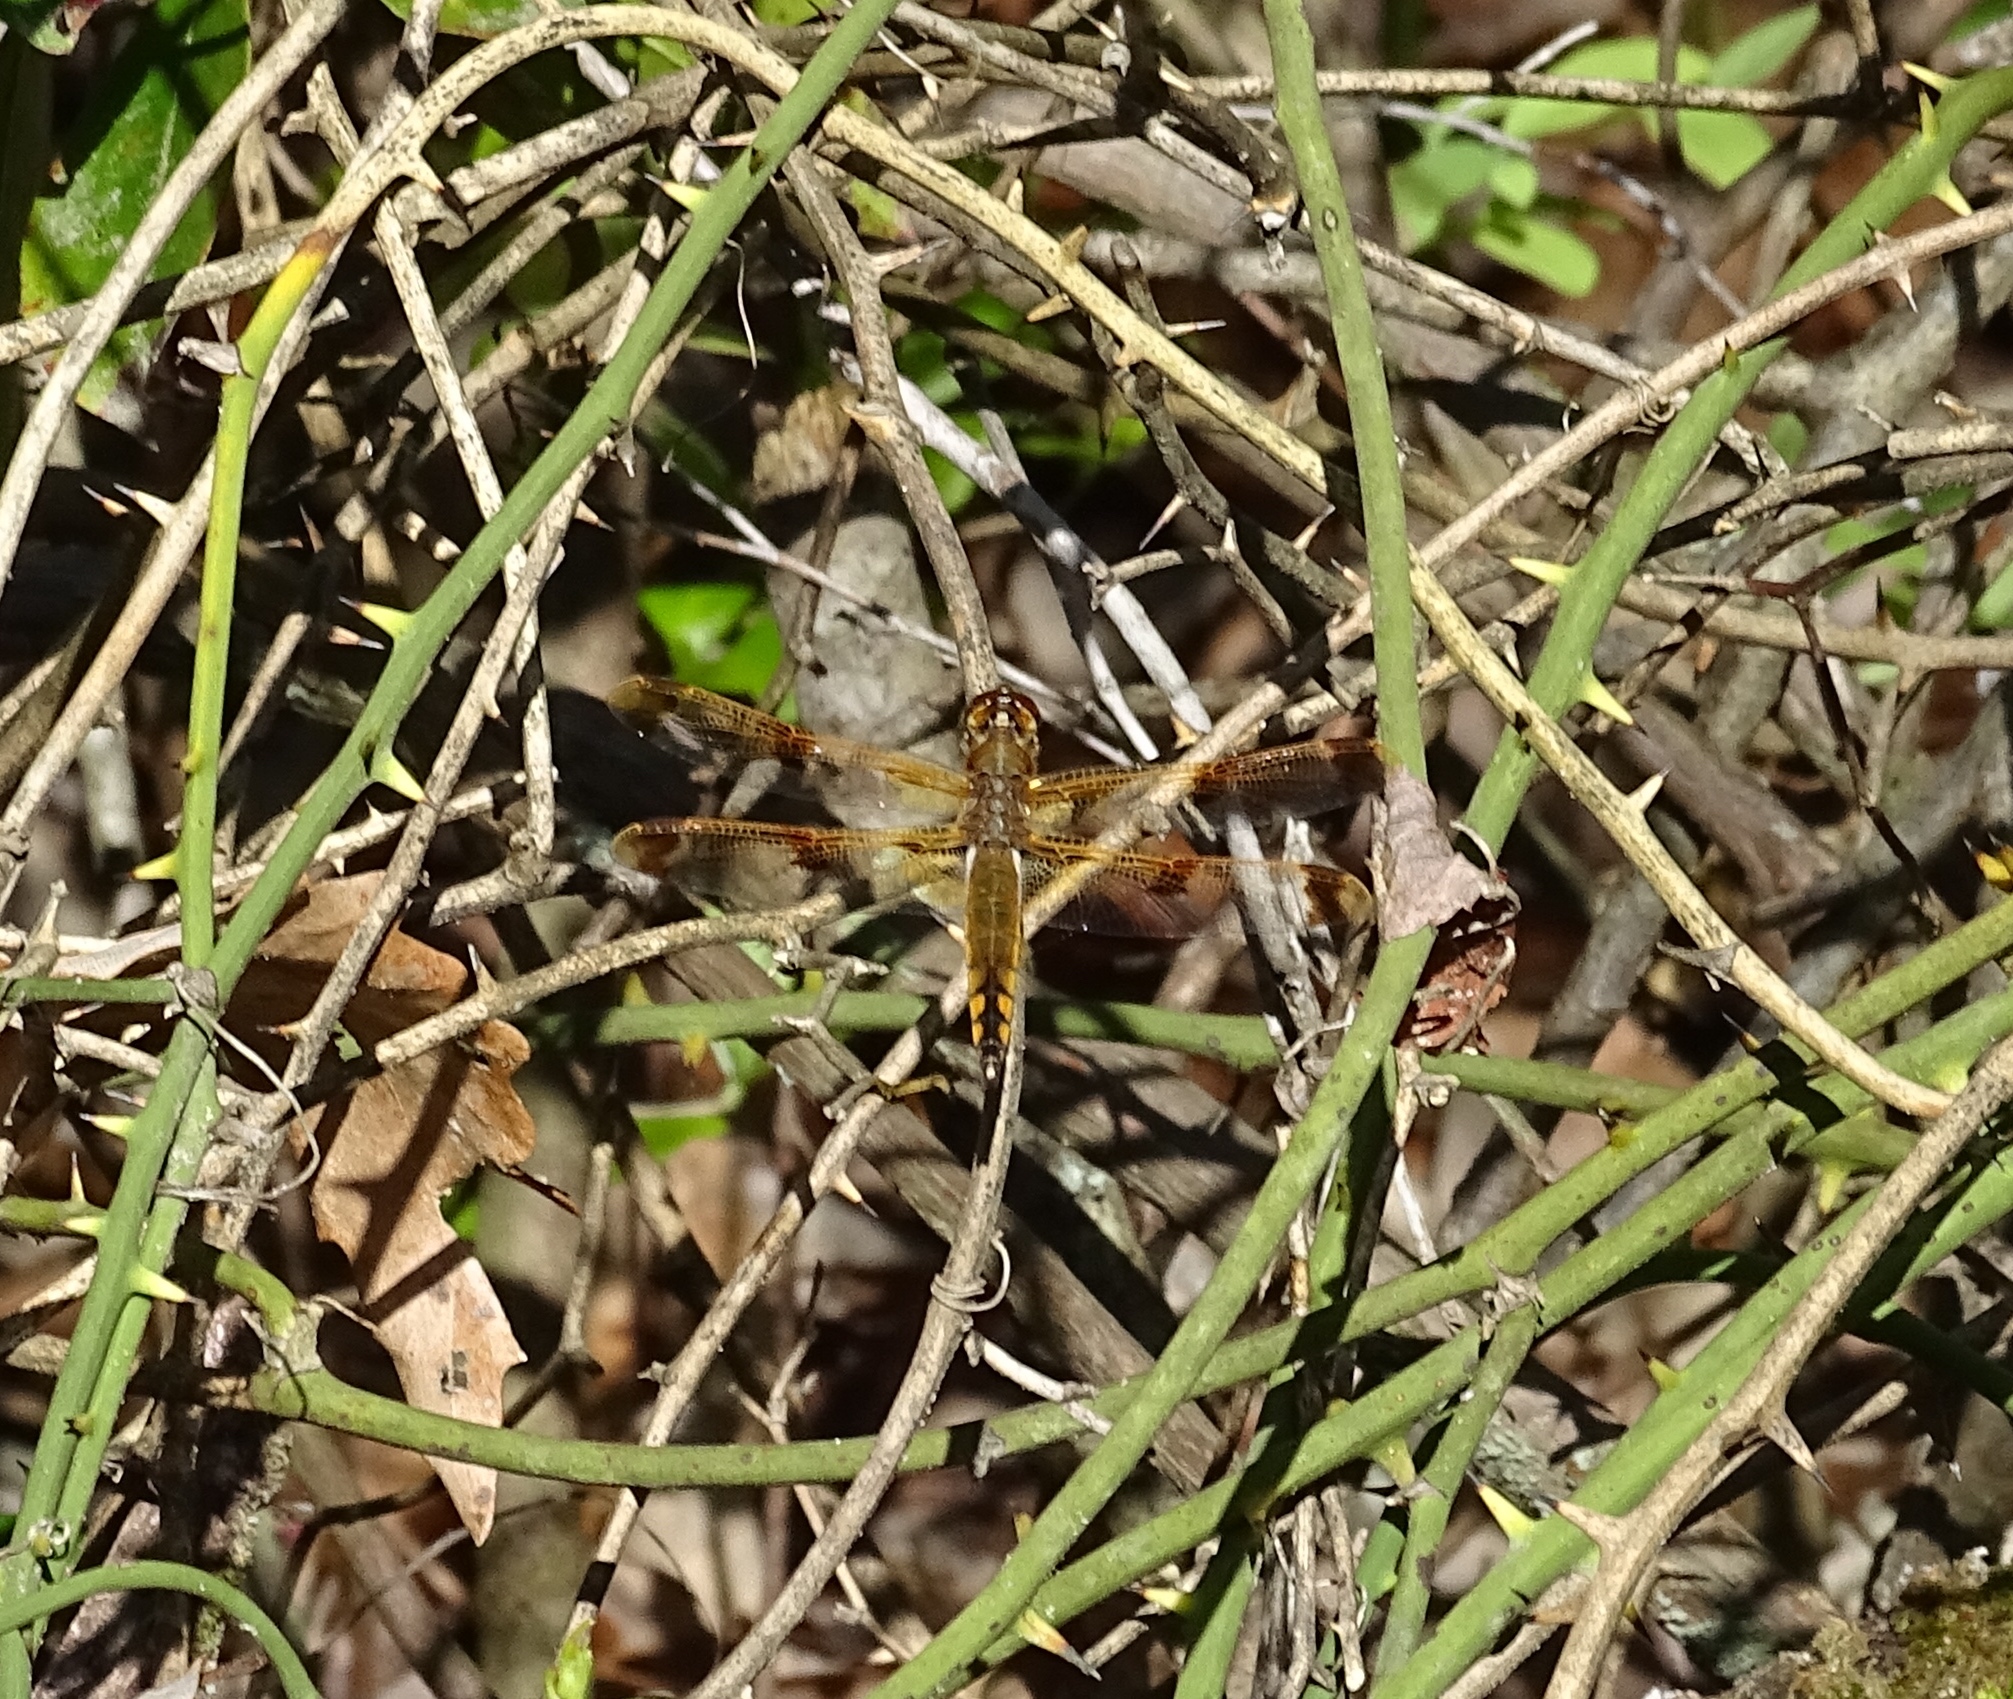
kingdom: Animalia
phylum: Arthropoda
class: Insecta
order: Odonata
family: Libellulidae
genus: Libellula
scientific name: Libellula semifasciata
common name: Painted skimmer
